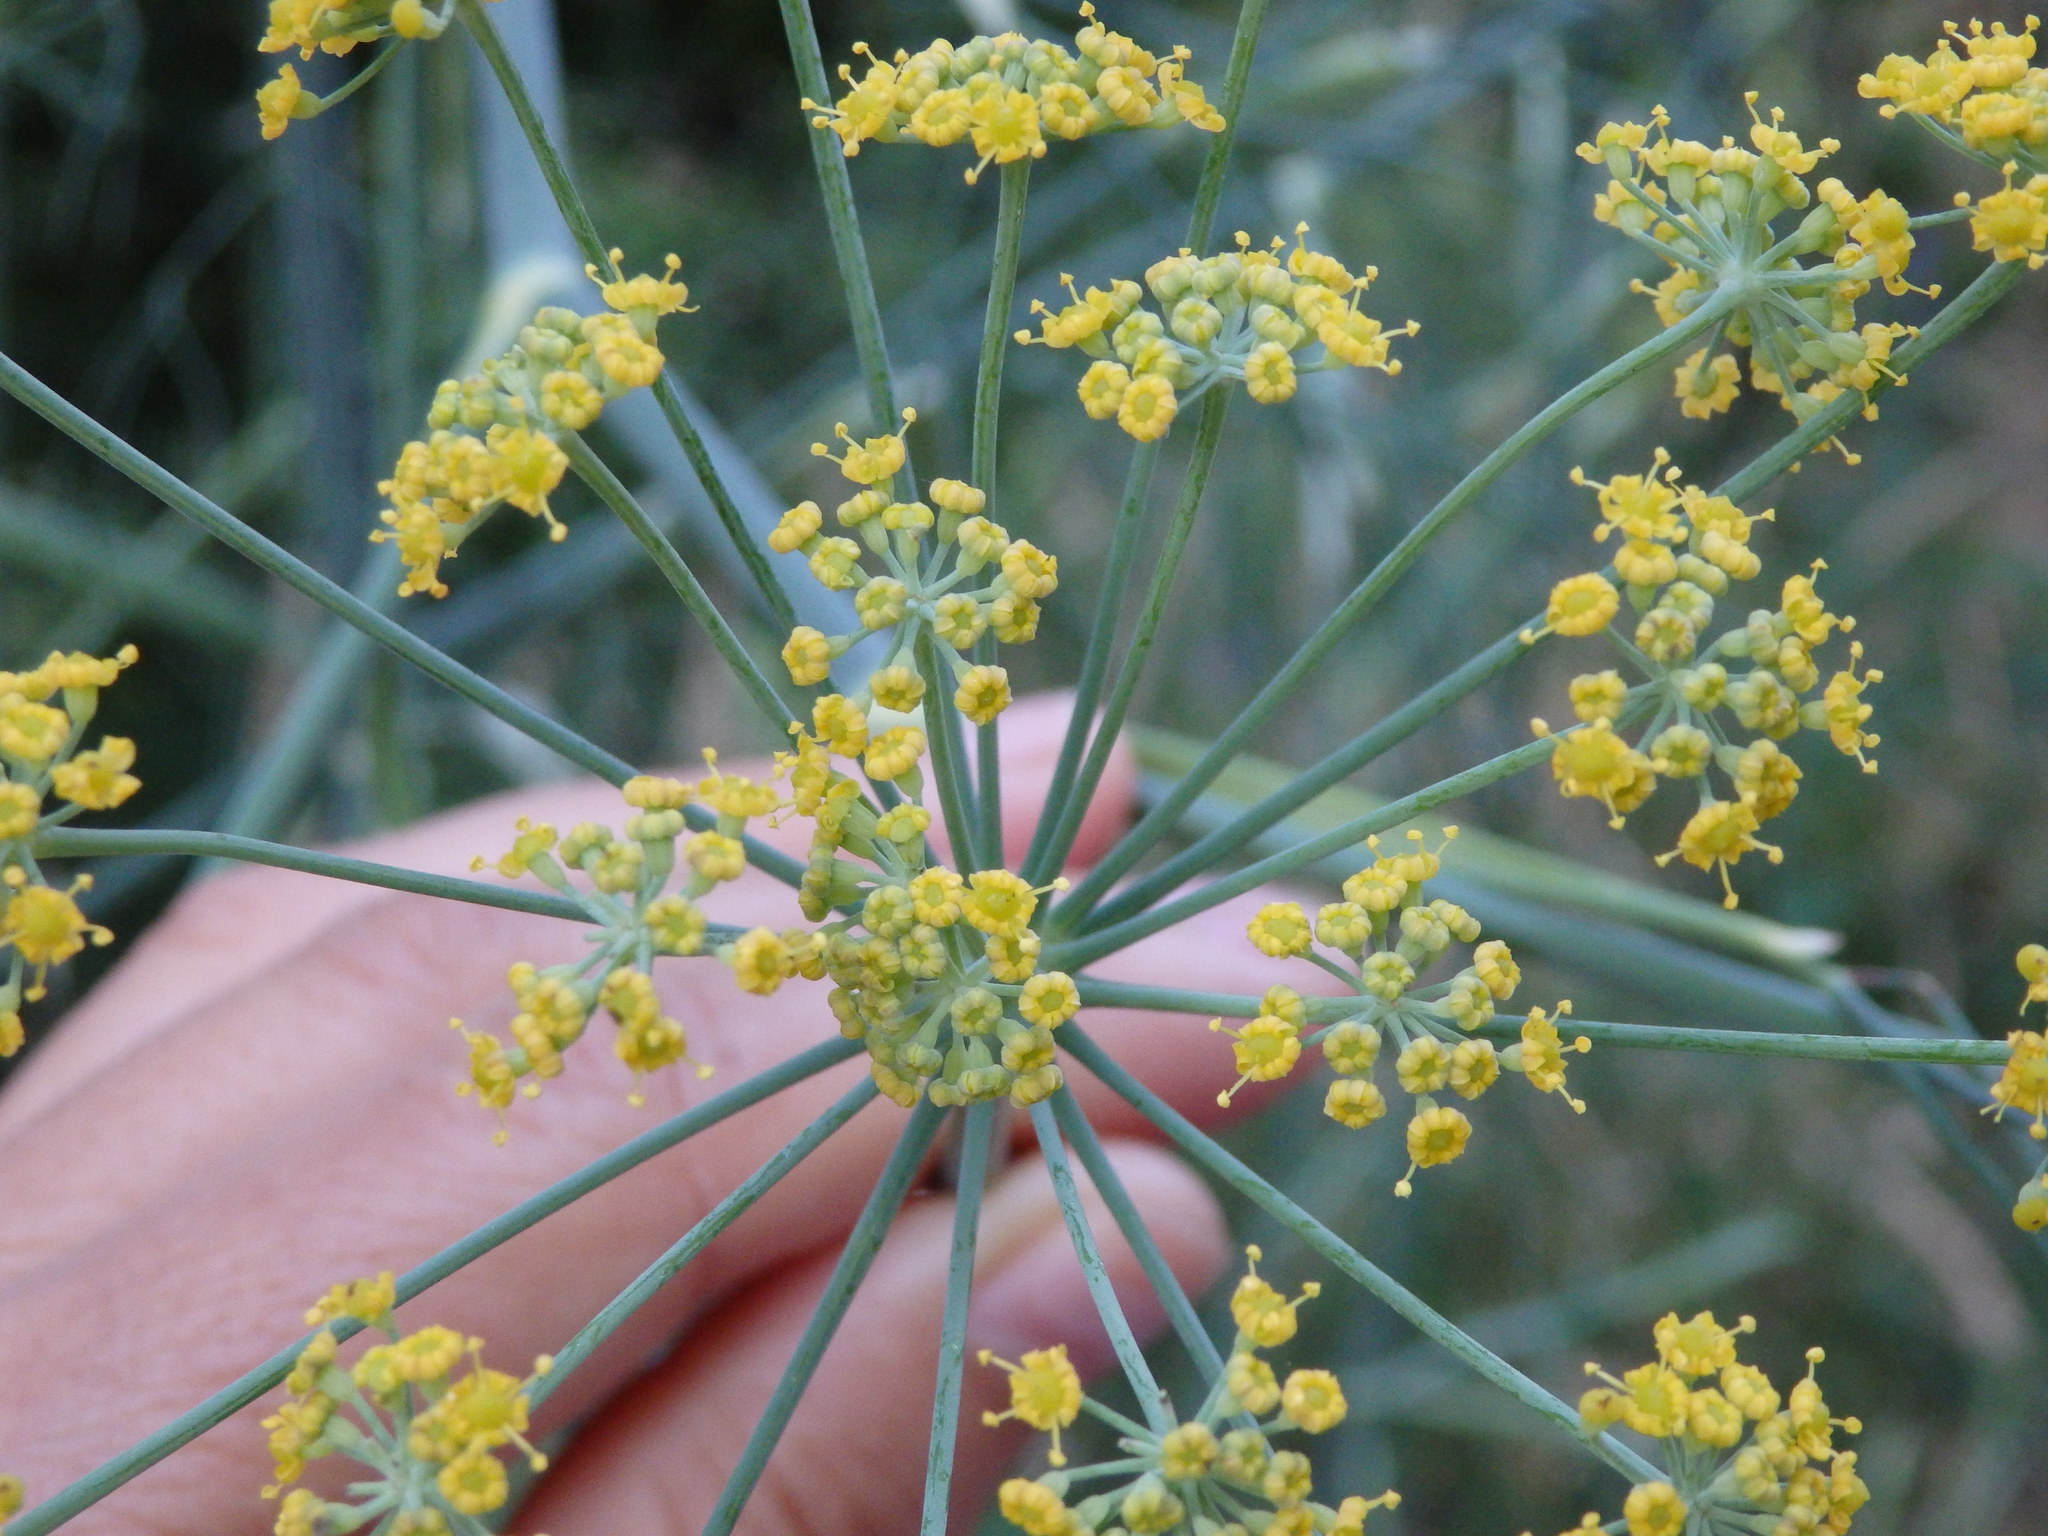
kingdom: Plantae
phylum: Tracheophyta
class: Magnoliopsida
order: Apiales
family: Apiaceae
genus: Foeniculum
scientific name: Foeniculum vulgare
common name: Fennel
